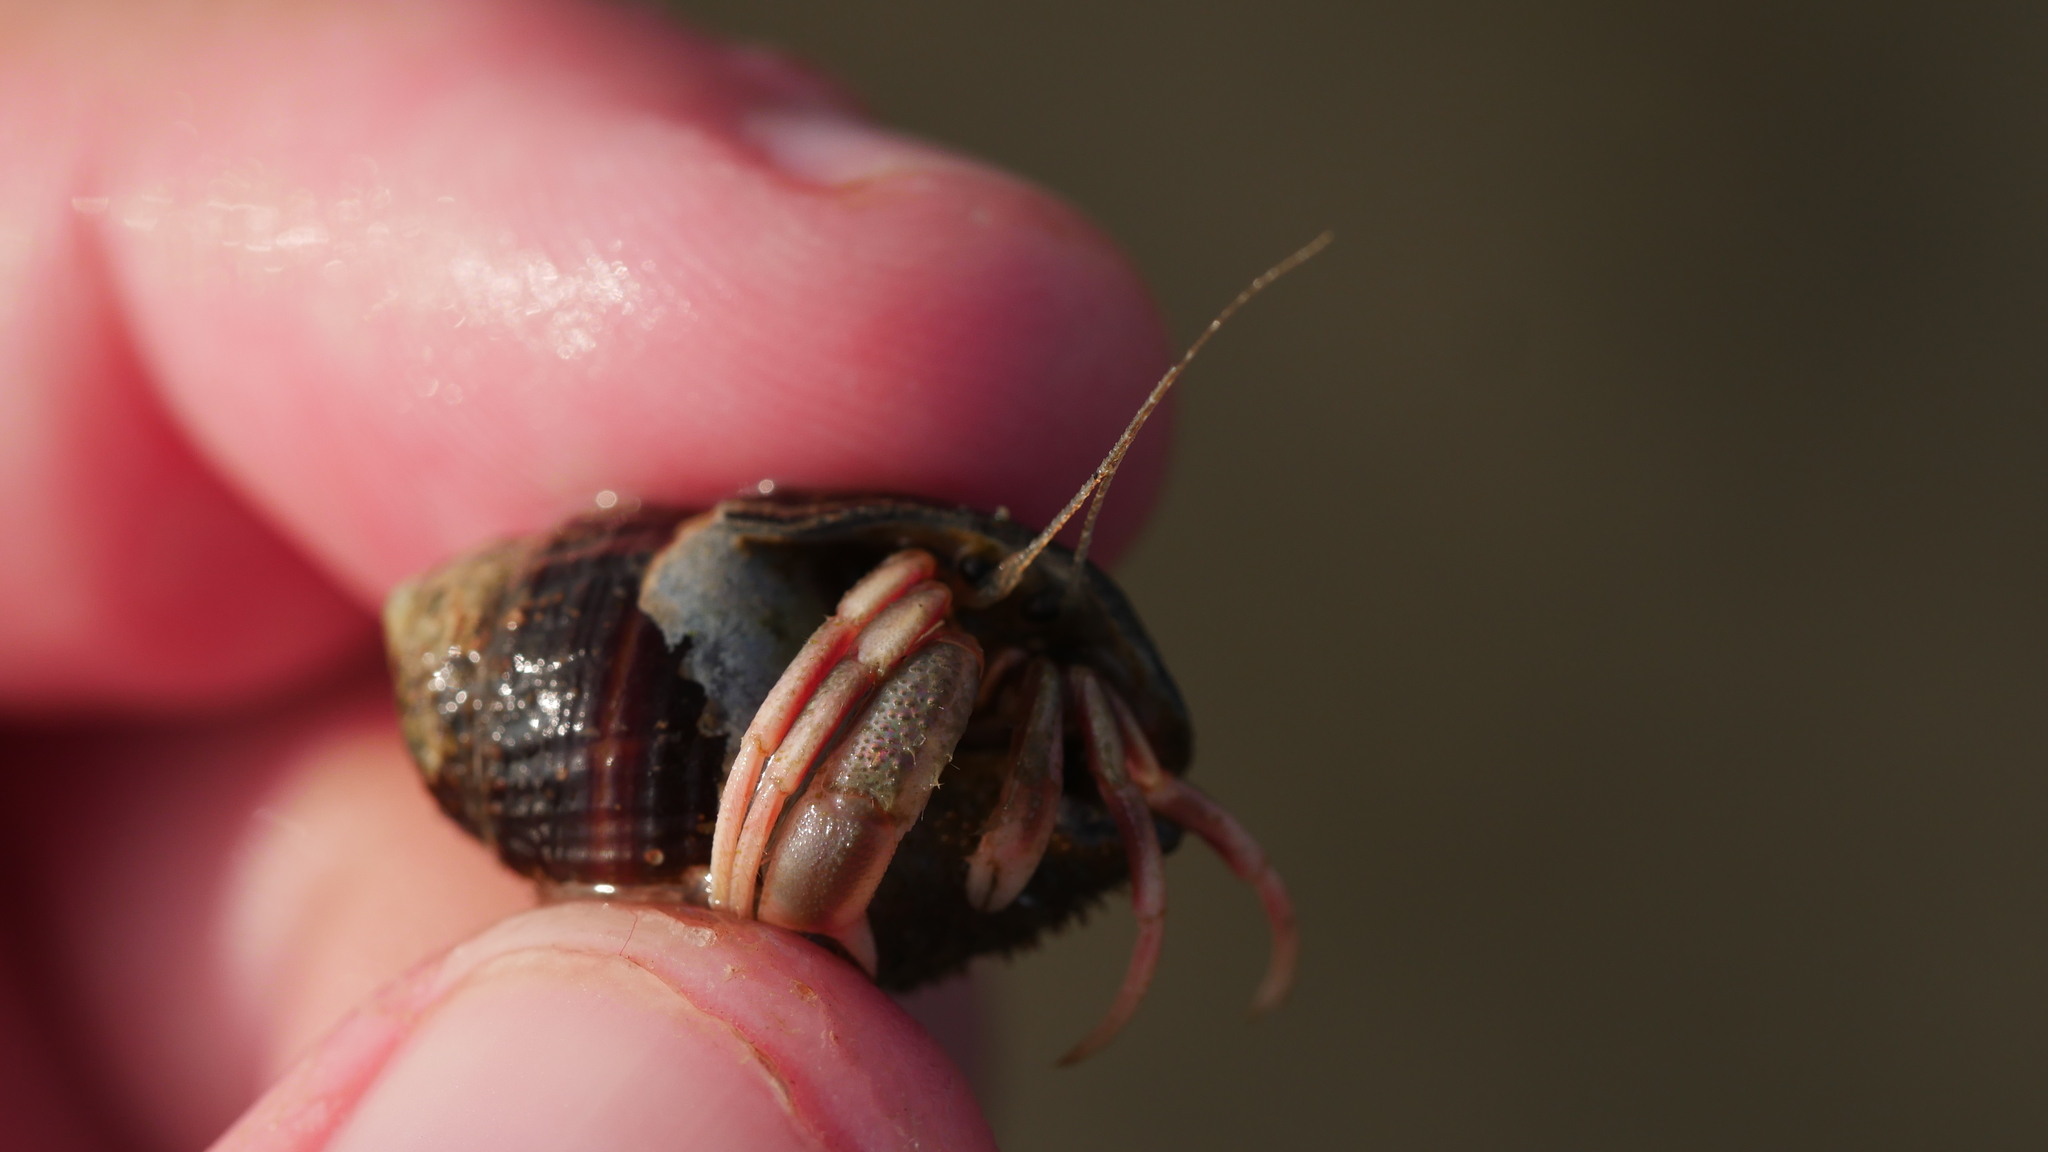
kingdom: Animalia
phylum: Arthropoda
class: Malacostraca
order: Decapoda
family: Paguridae
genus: Pagurus
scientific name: Pagurus longicarpus
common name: Long-armed hermit crab
